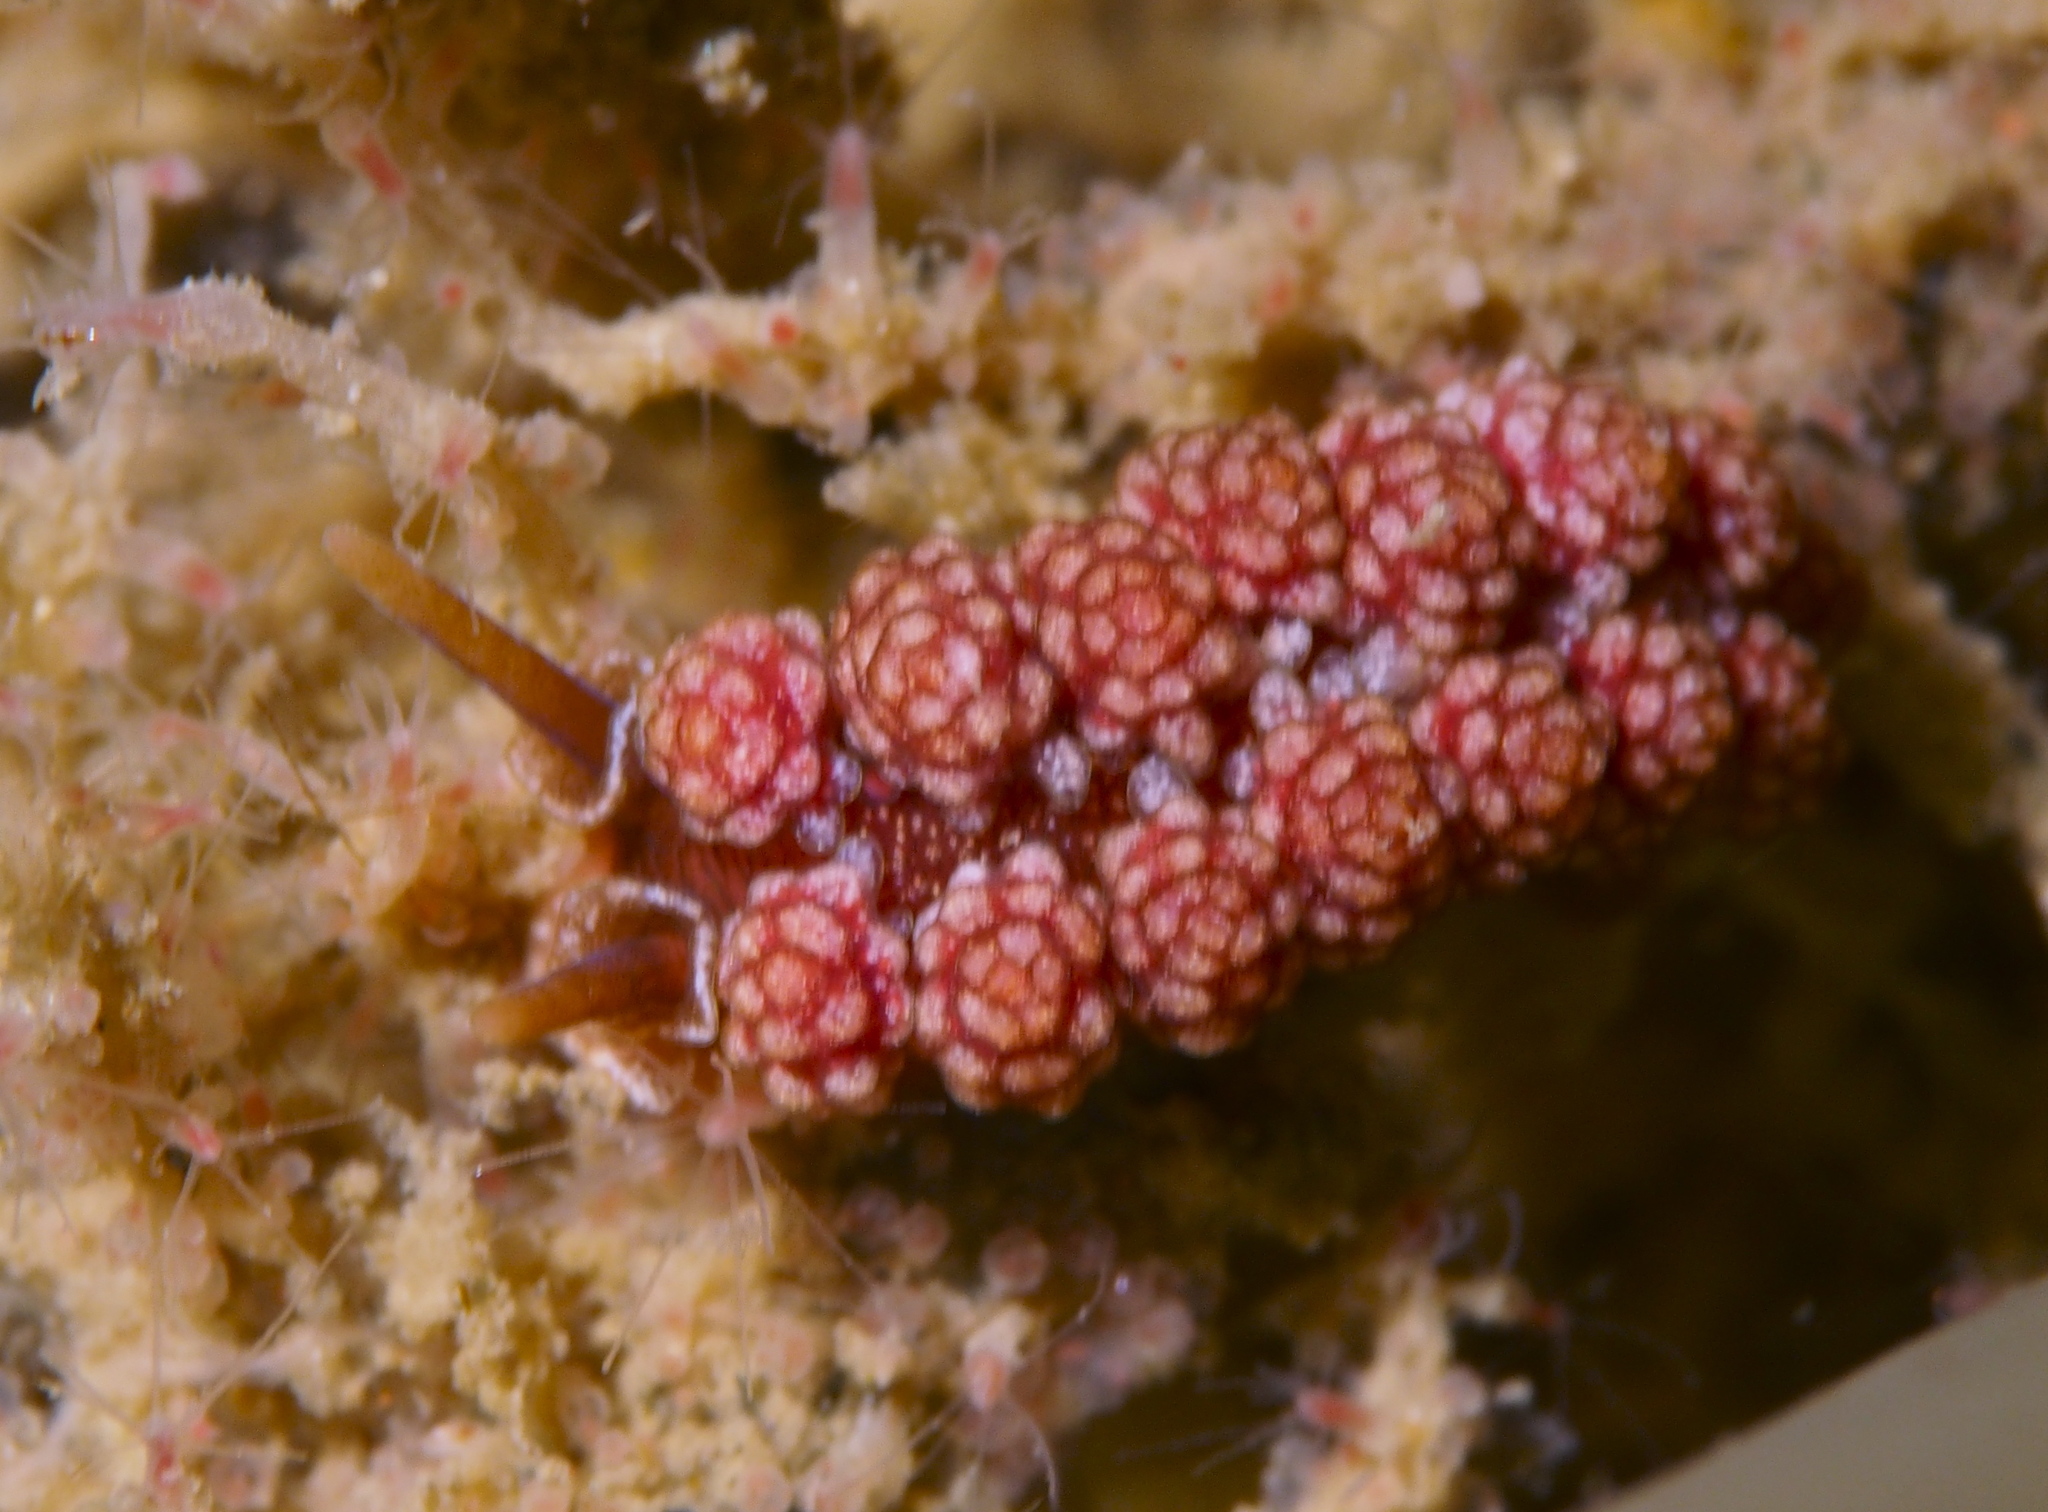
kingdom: Animalia
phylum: Mollusca
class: Gastropoda
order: Nudibranchia
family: Dotidae
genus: Doto
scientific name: Doto fragilis
